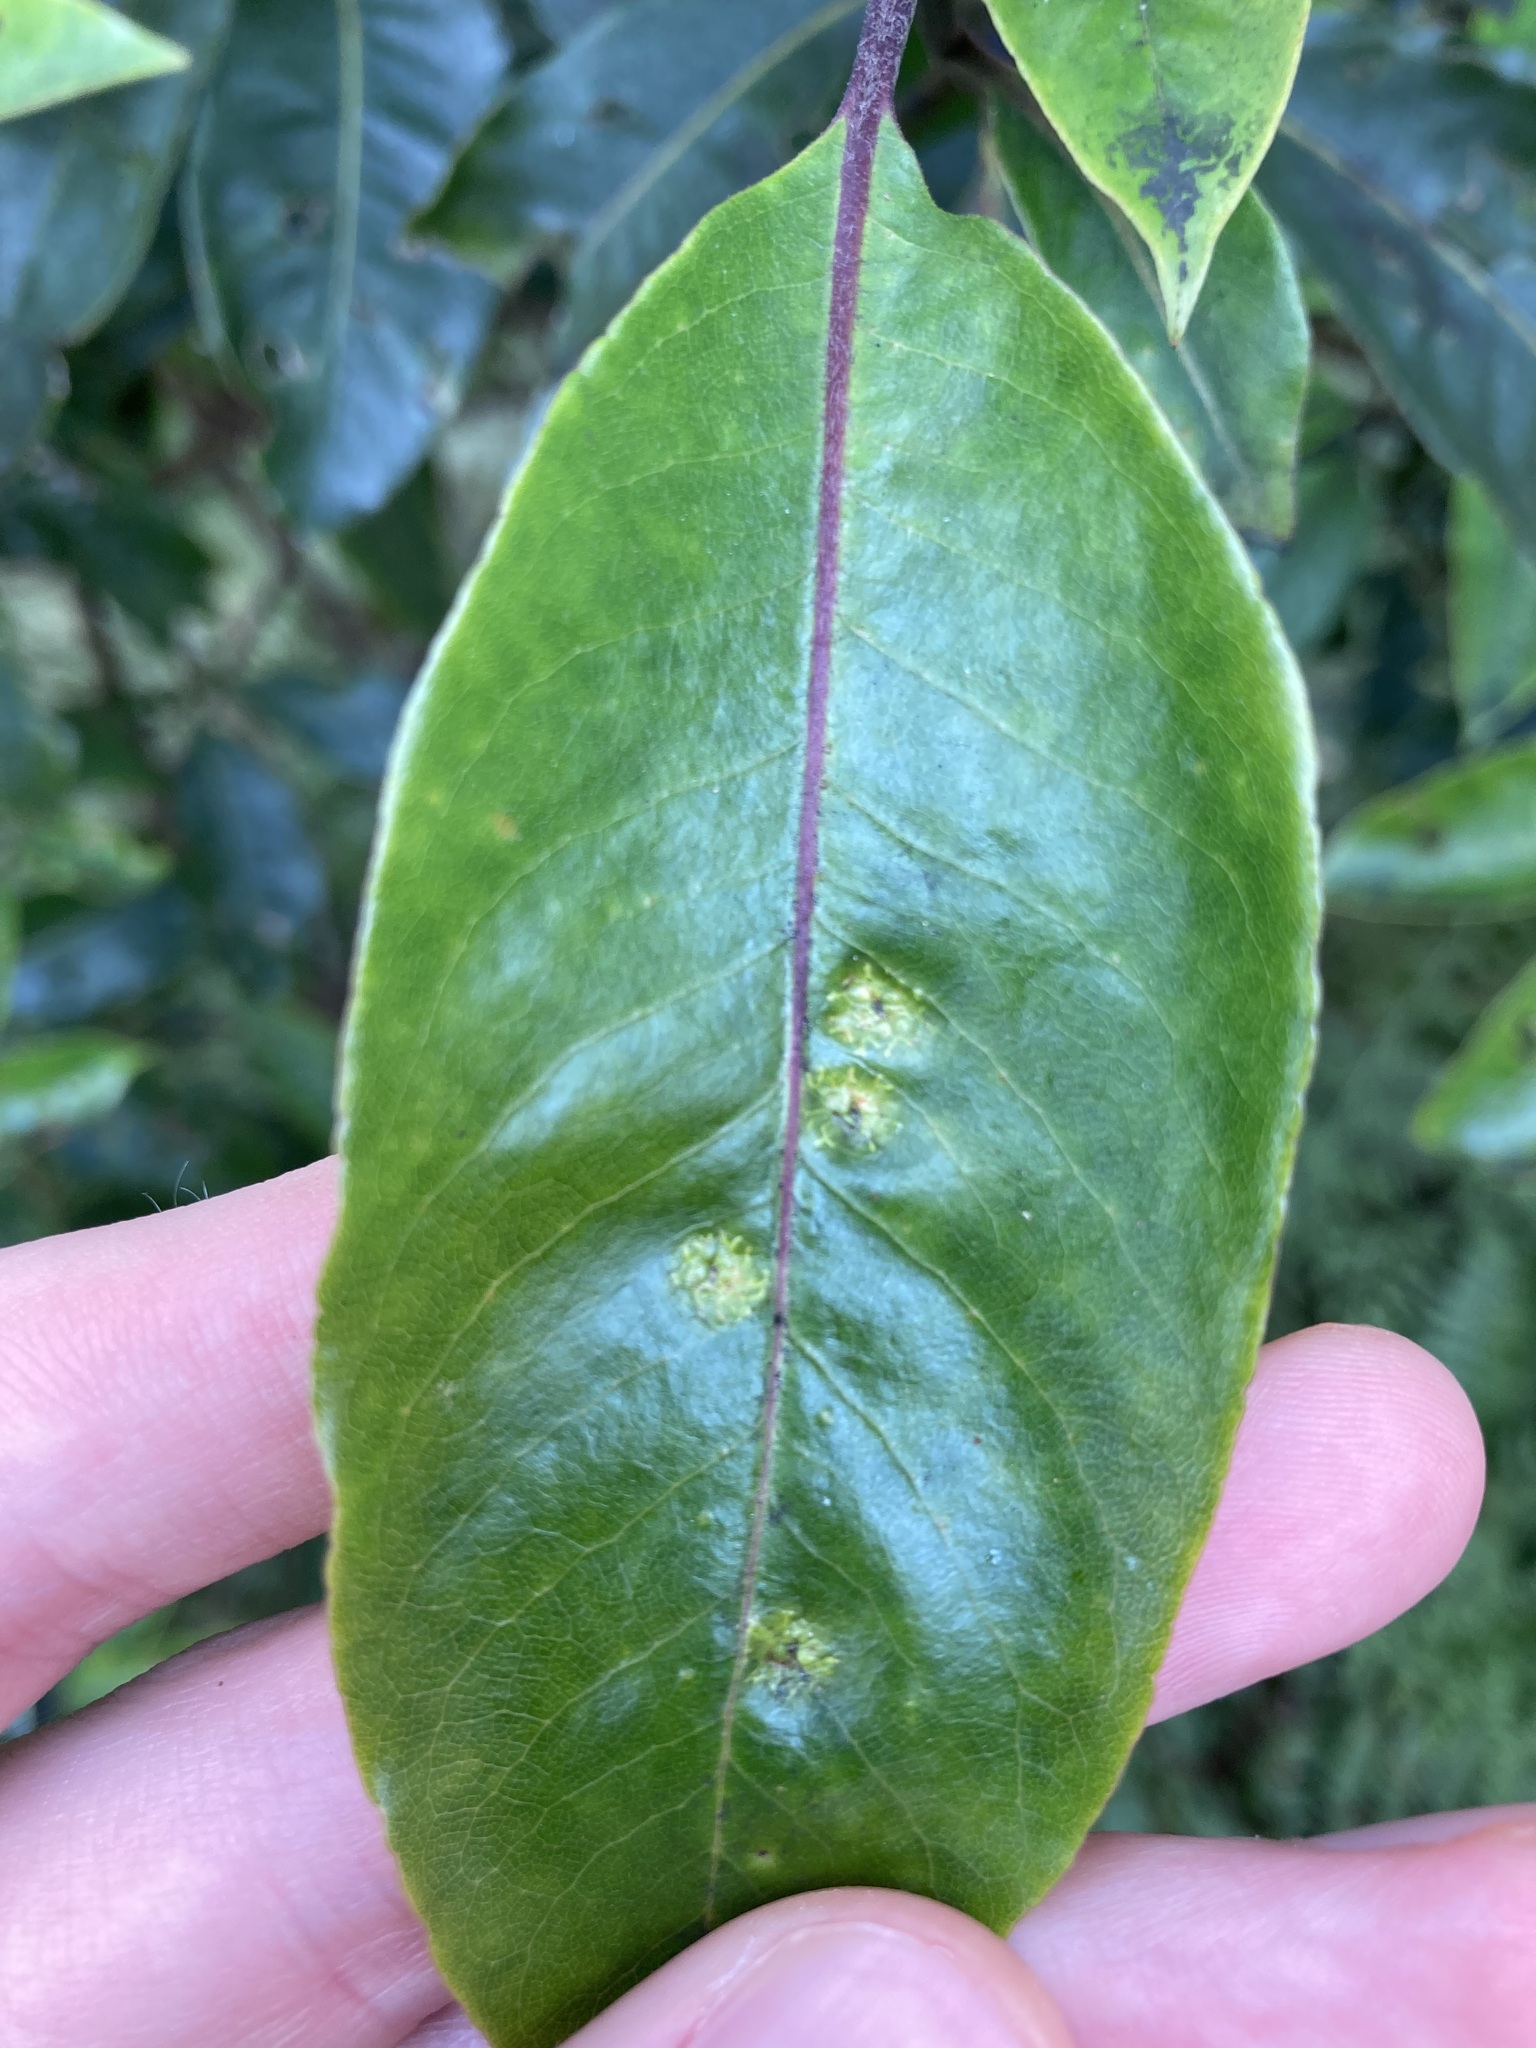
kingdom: Animalia
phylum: Arthropoda
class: Insecta
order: Diptera
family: Agromyzidae
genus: Phytoliriomyza
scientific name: Phytoliriomyza pittosporophylli
